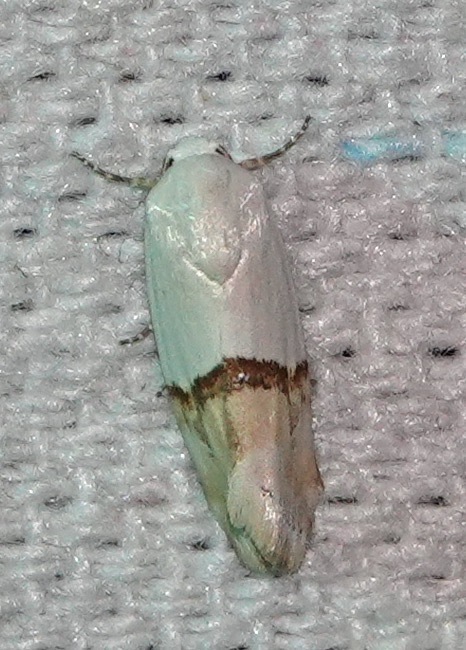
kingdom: Animalia
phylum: Arthropoda
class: Insecta
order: Lepidoptera
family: Noctuidae
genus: Ponometia
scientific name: Ponometia elegantula
